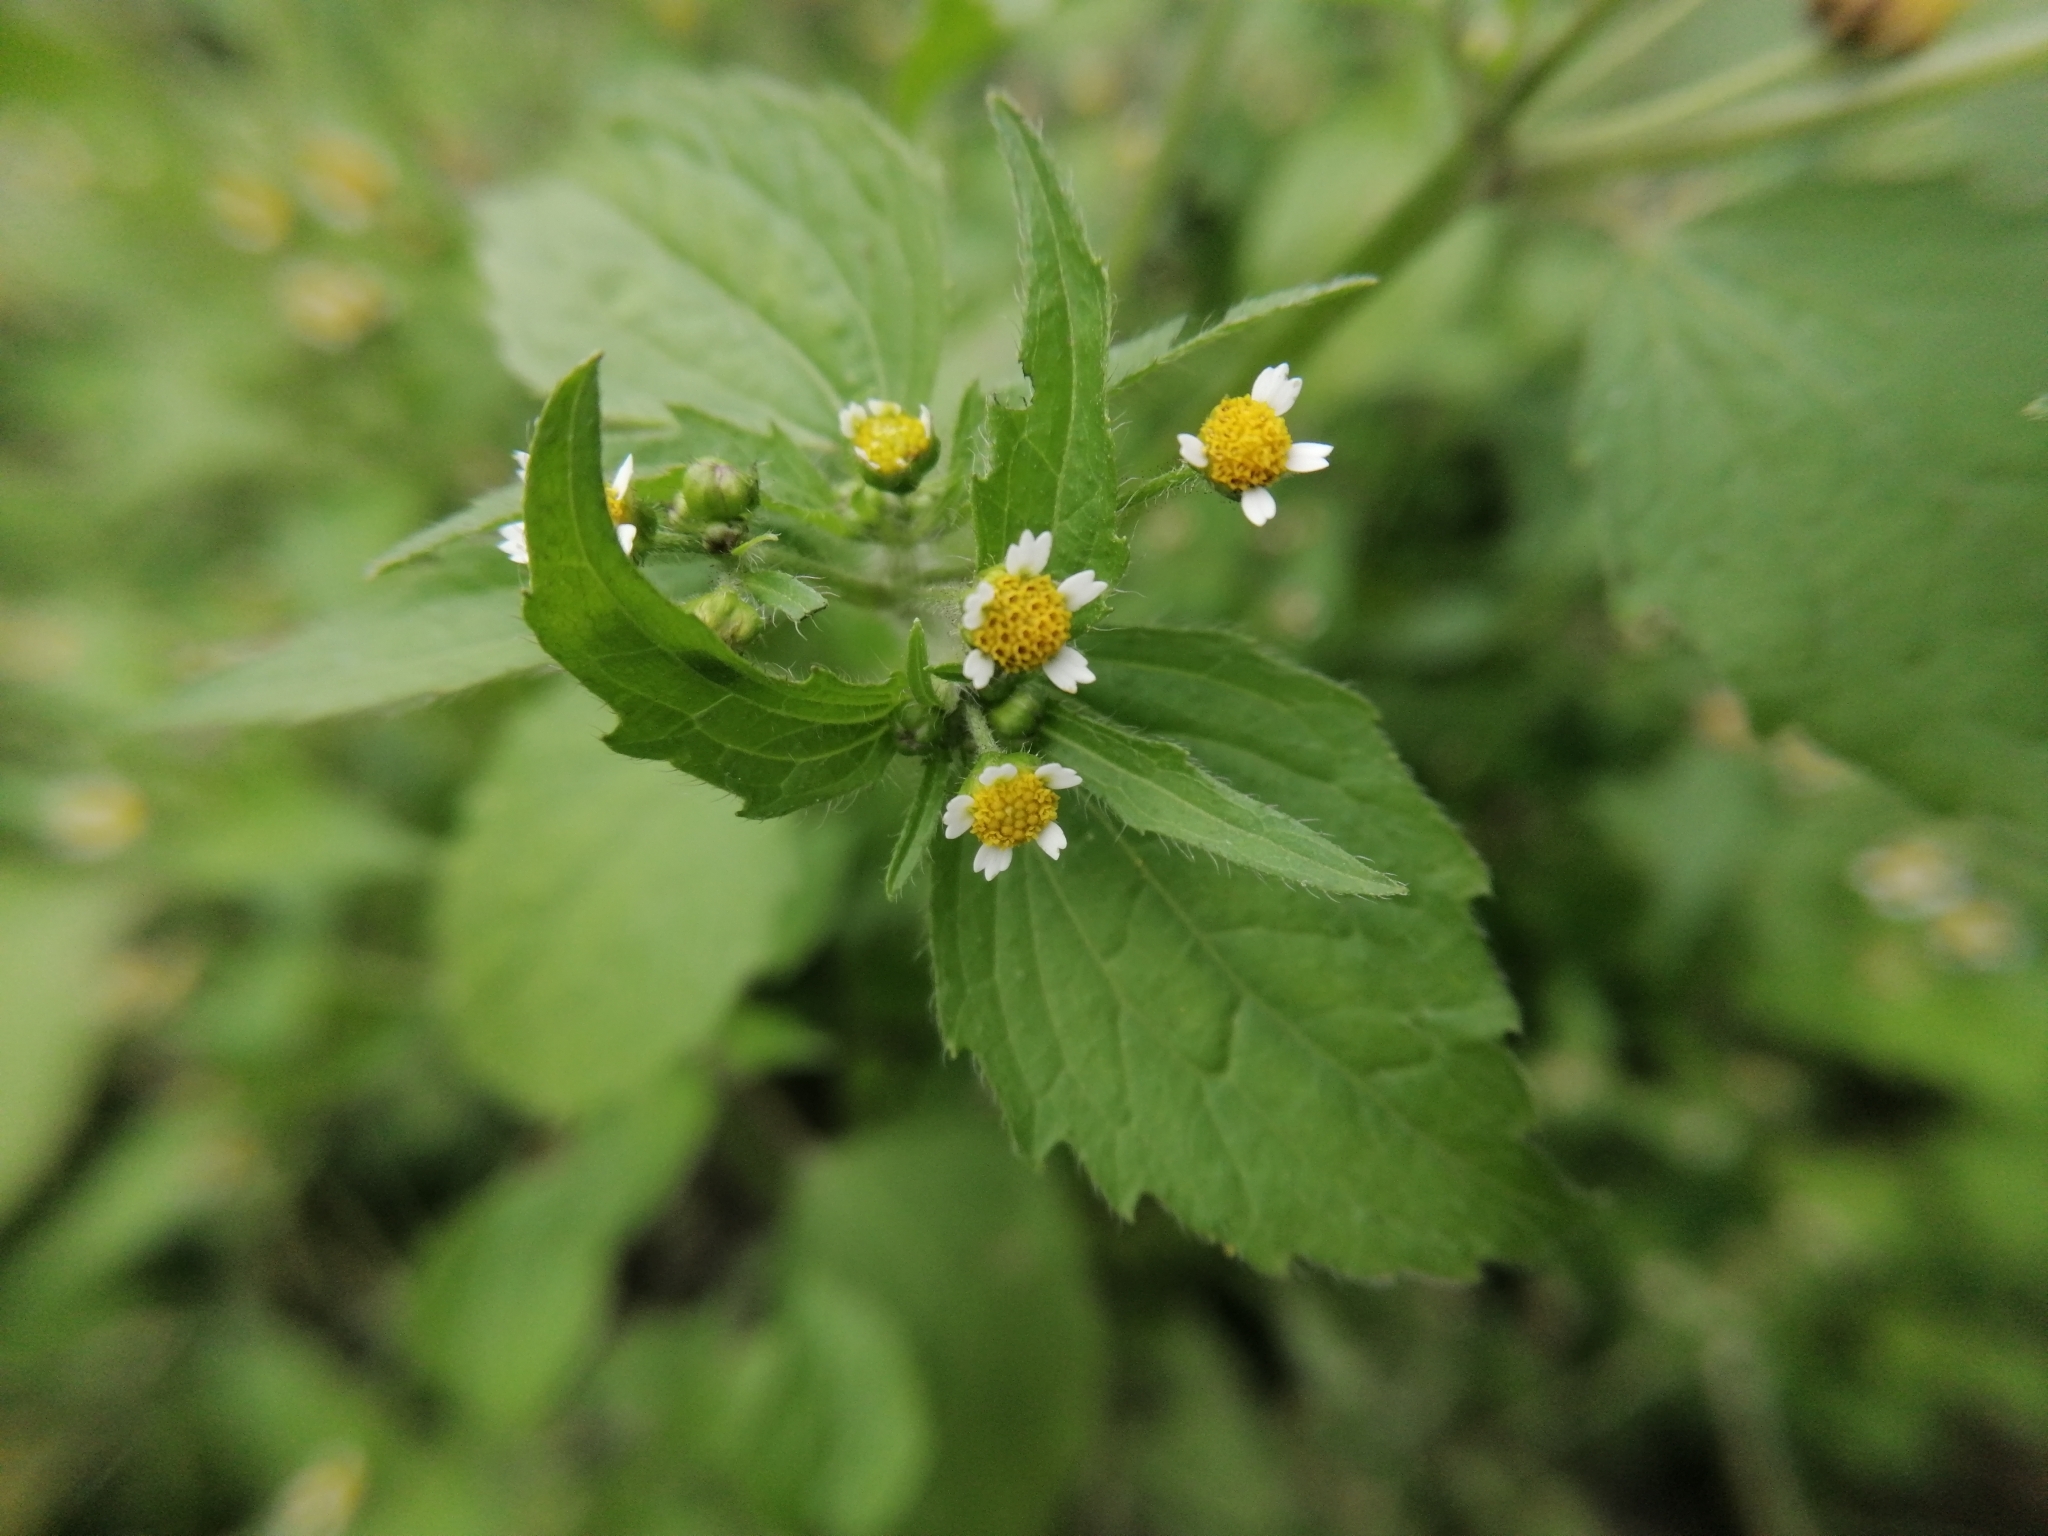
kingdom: Plantae
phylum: Tracheophyta
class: Magnoliopsida
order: Asterales
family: Asteraceae
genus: Galinsoga
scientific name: Galinsoga quadriradiata
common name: Shaggy soldier
